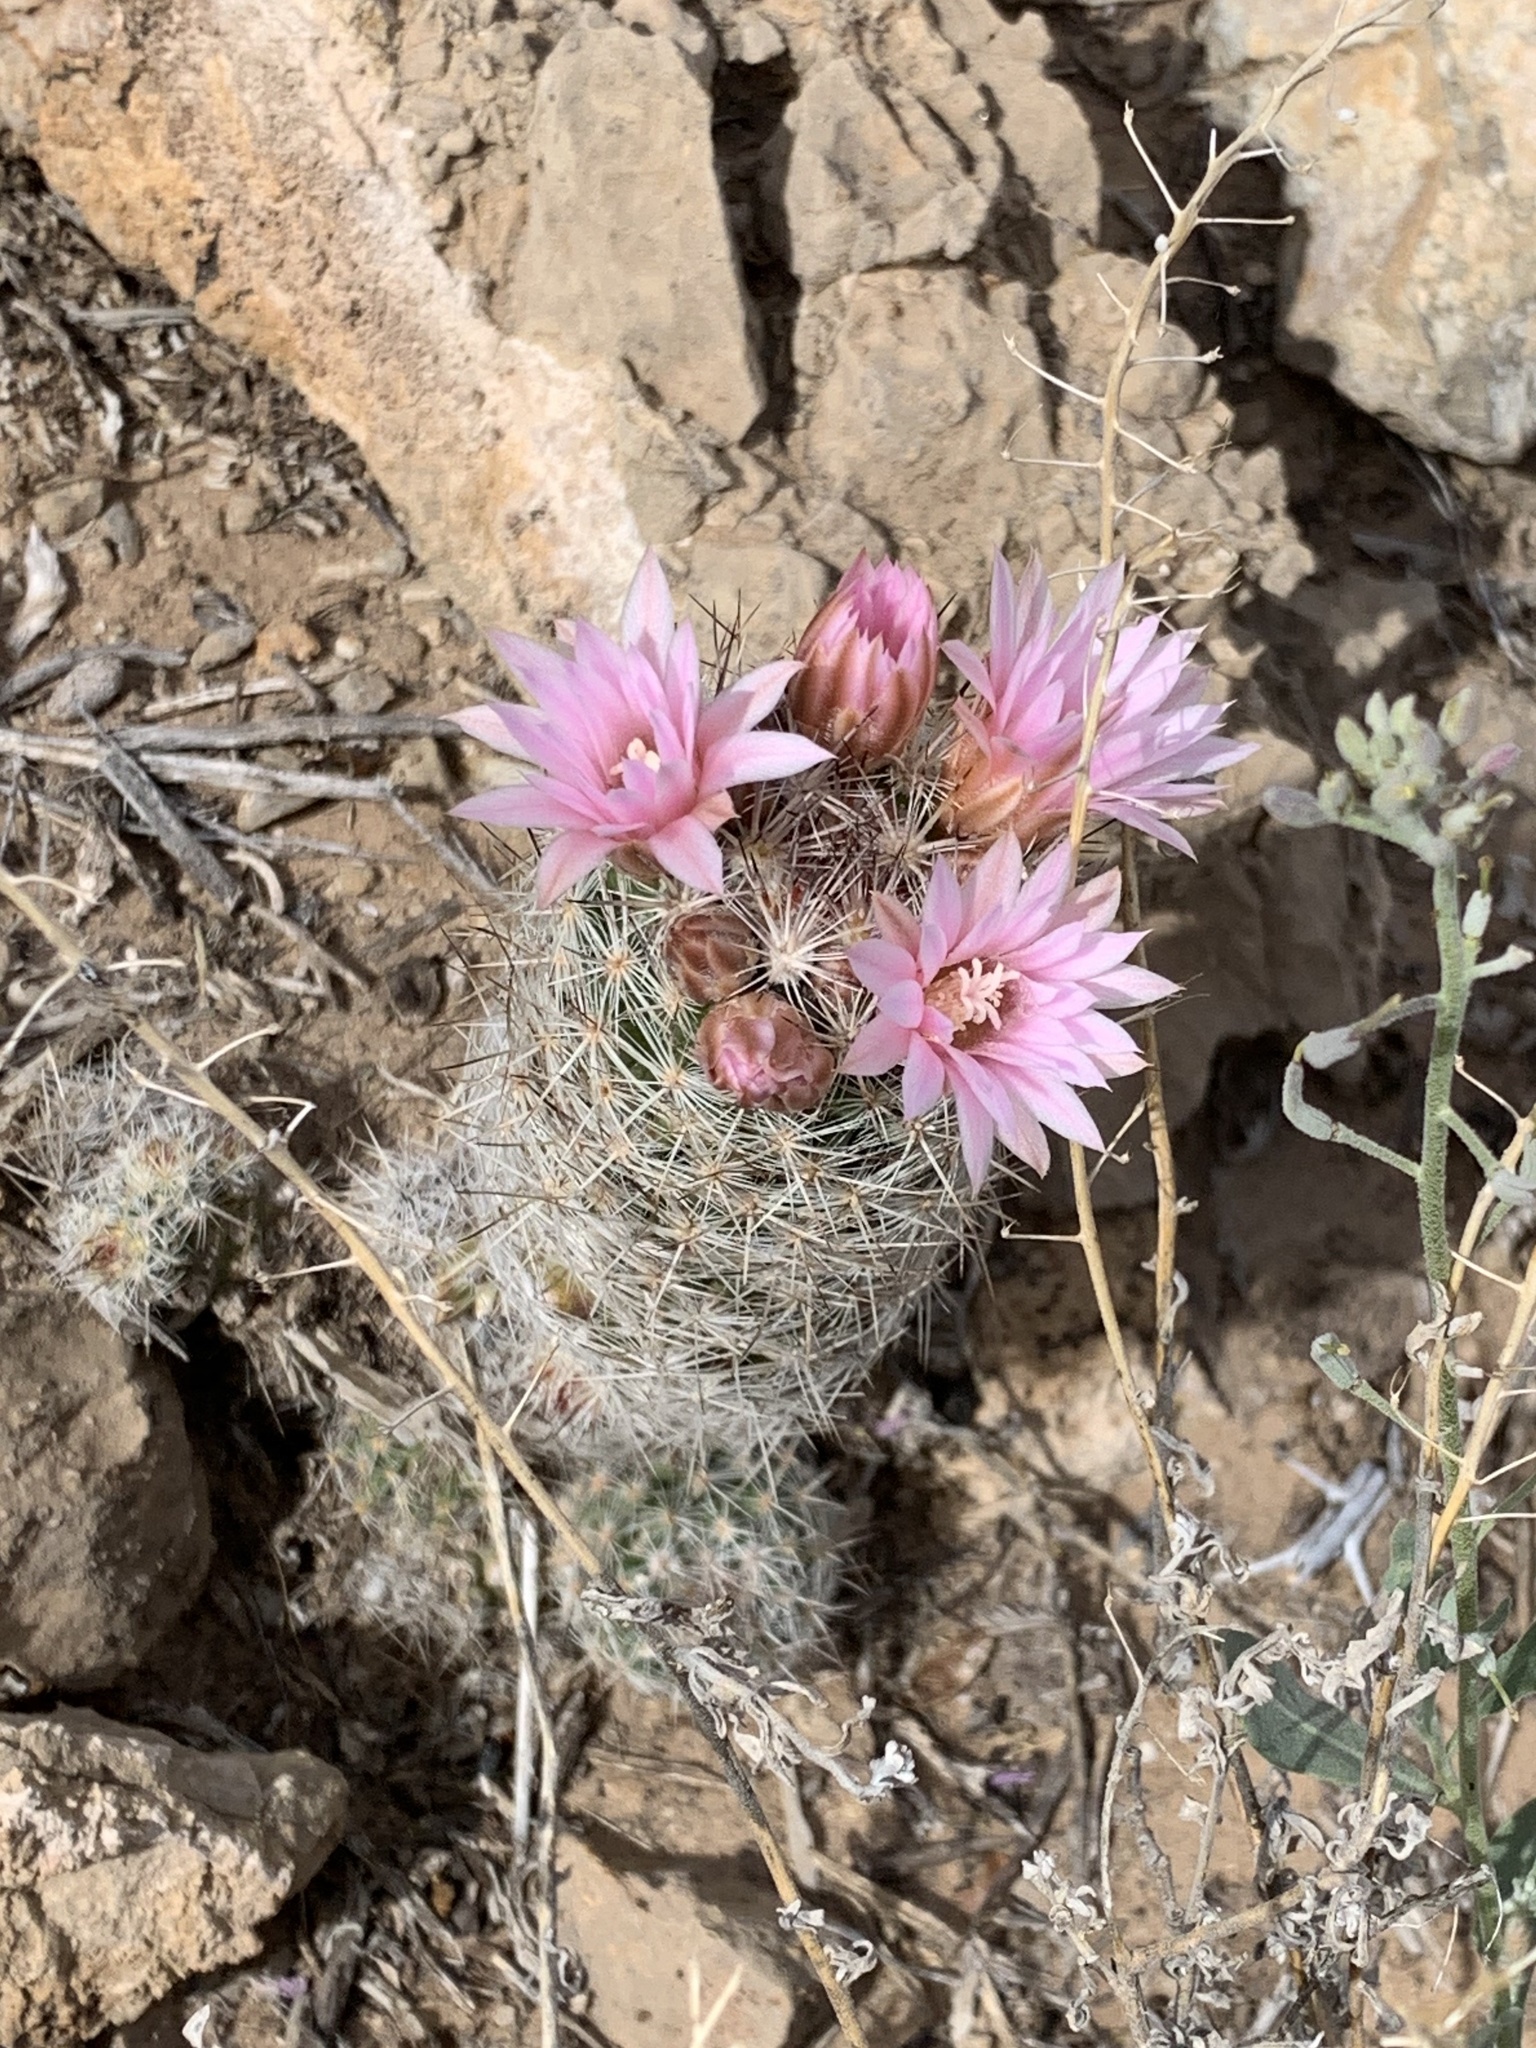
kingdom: Plantae
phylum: Tracheophyta
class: Magnoliopsida
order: Caryophyllales
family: Cactaceae
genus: Pelecyphora
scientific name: Pelecyphora tuberculosa
